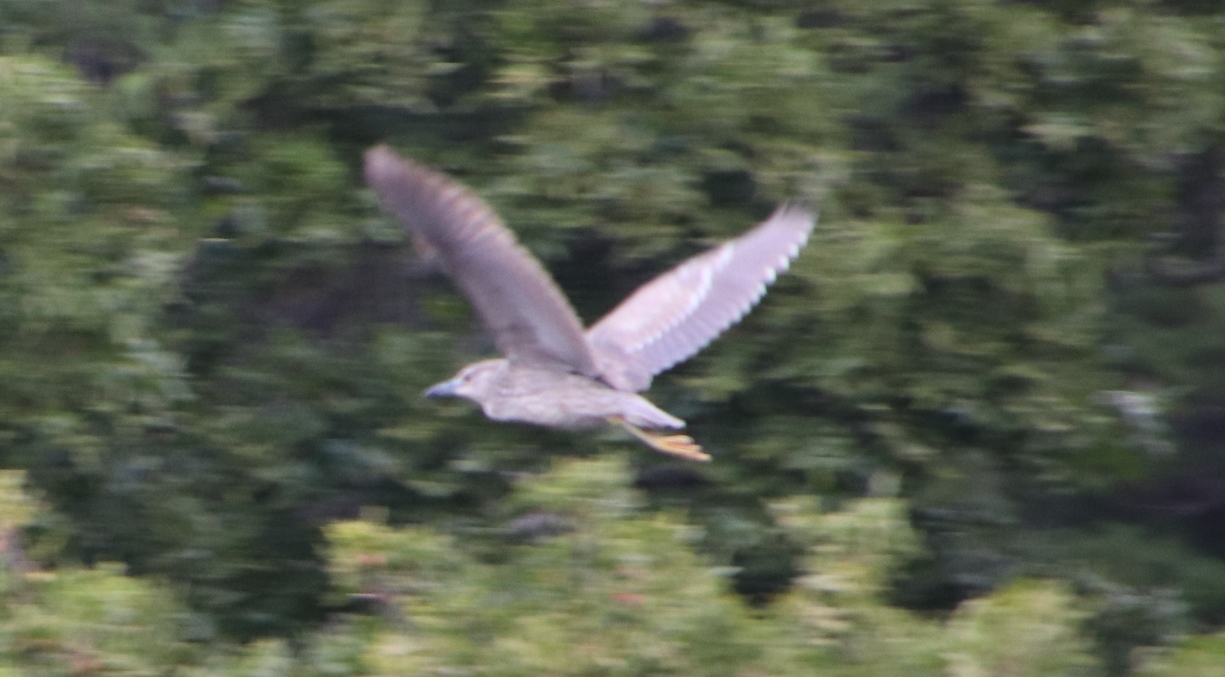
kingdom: Animalia
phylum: Chordata
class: Aves
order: Pelecaniformes
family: Ardeidae
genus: Nycticorax
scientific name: Nycticorax nycticorax
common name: Black-crowned night heron
